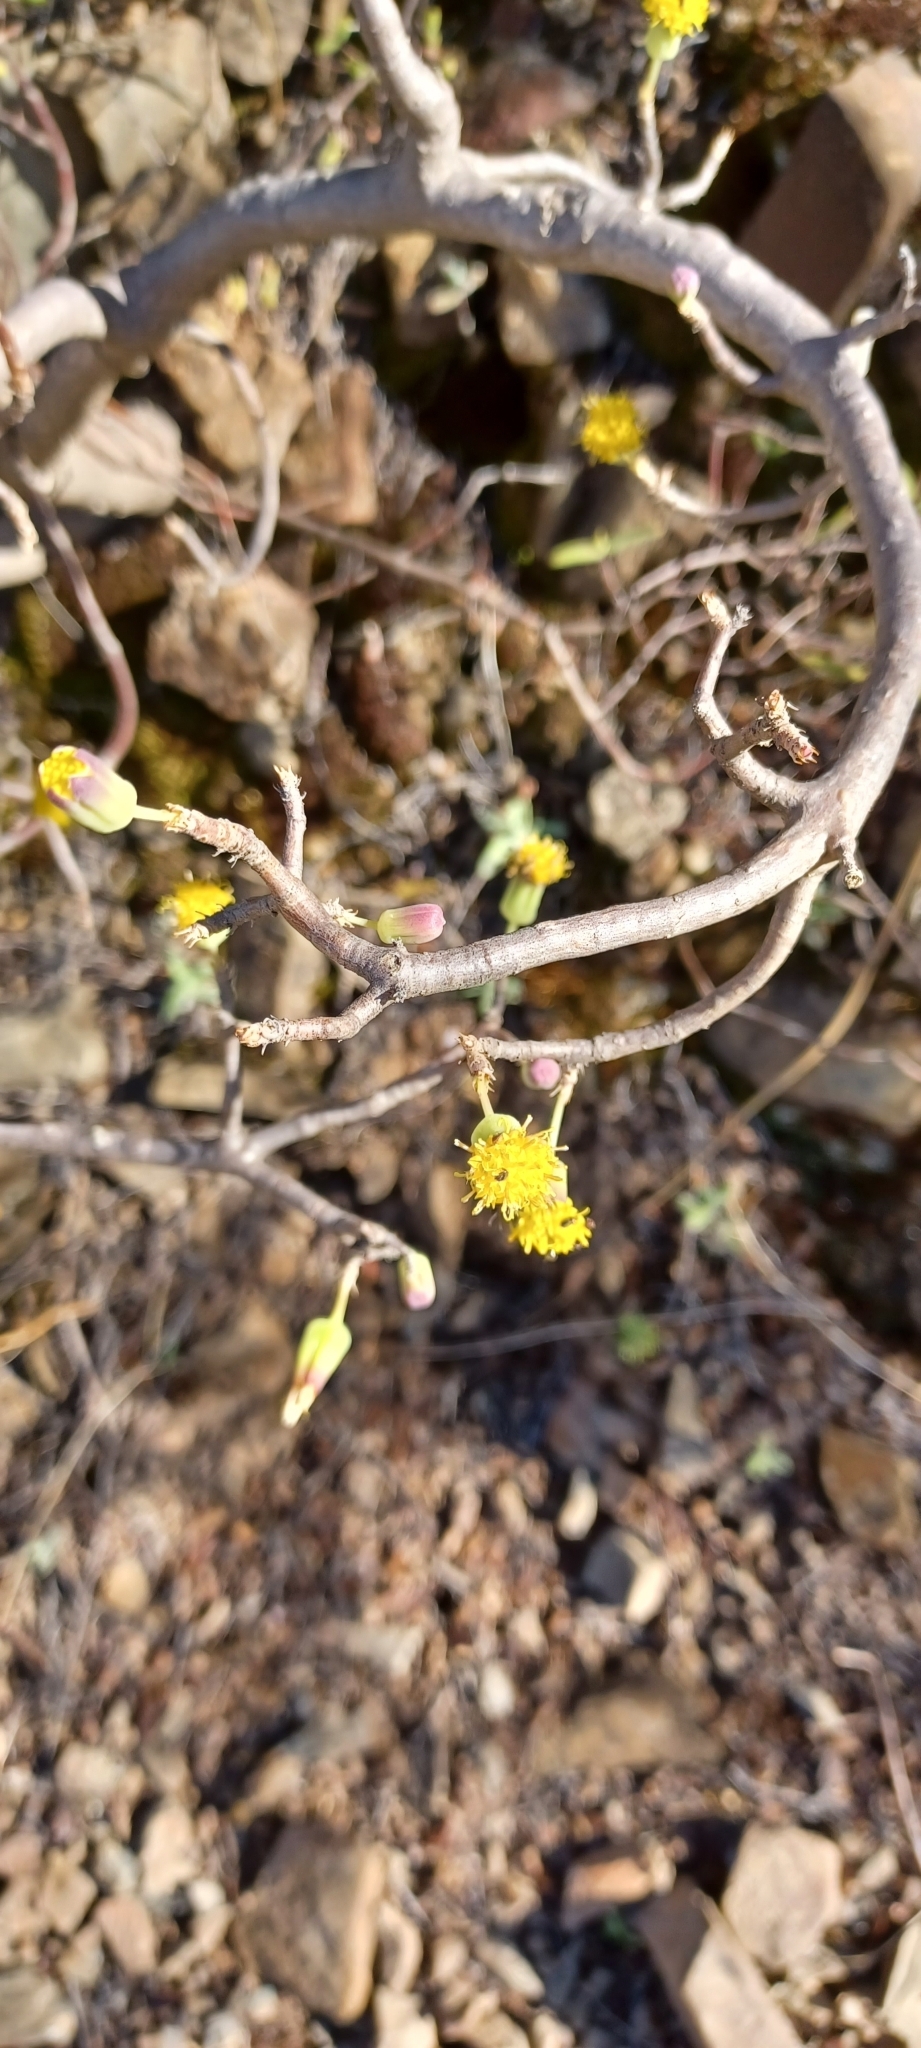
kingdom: Plantae
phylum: Tracheophyta
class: Magnoliopsida
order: Asterales
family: Asteraceae
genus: Othonna
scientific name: Othonna arbuscula
